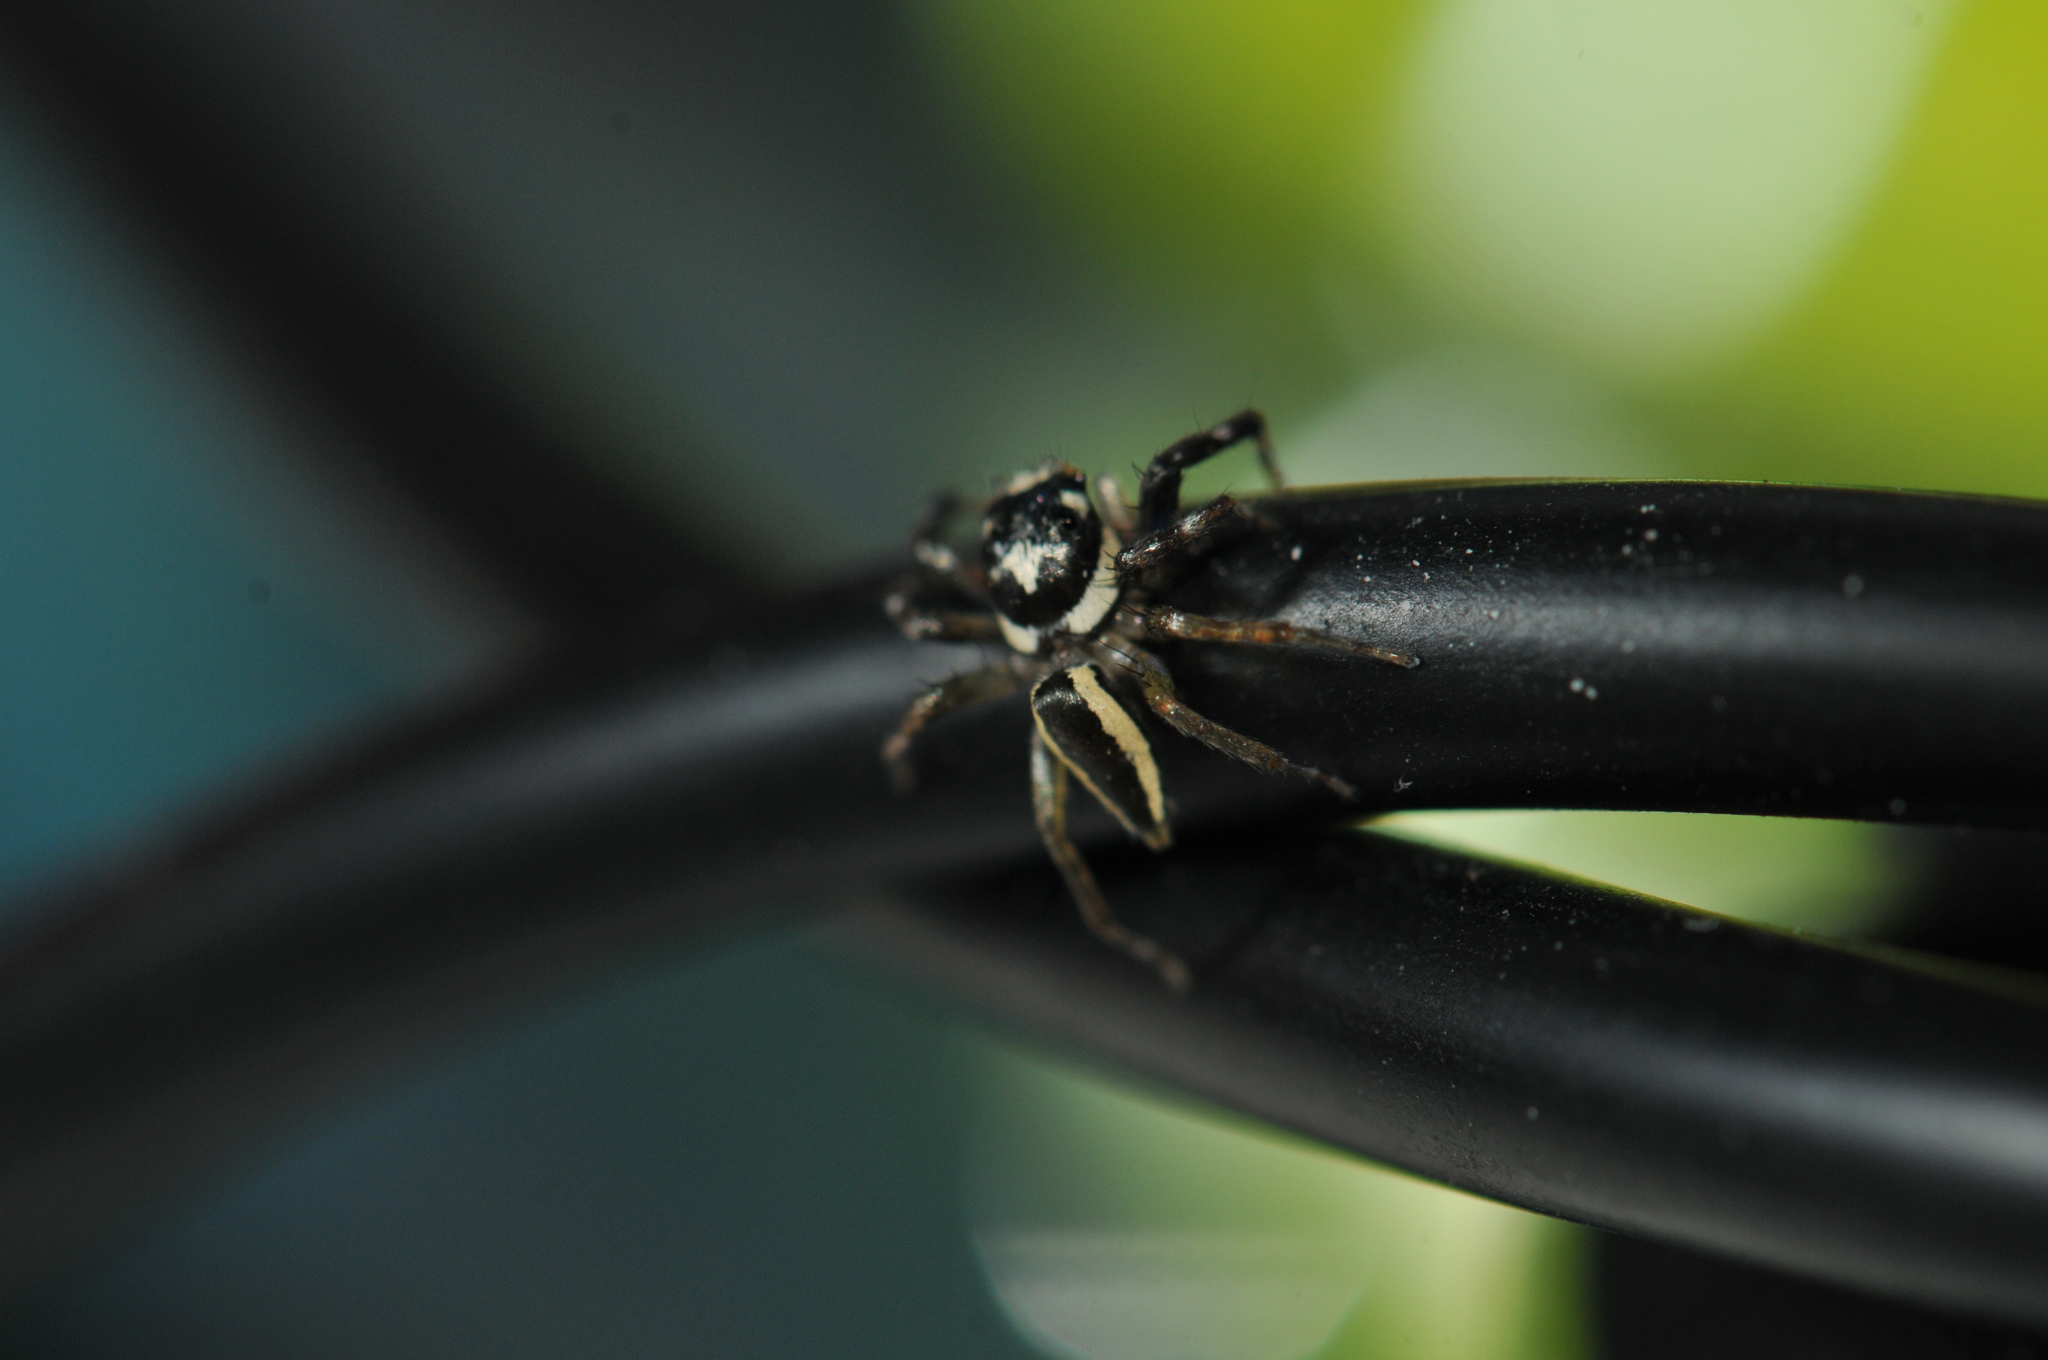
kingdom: Animalia
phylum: Arthropoda
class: Arachnida
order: Araneae
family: Salticidae
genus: Phintelloides
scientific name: Phintelloides versicolor
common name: Jumping spider
